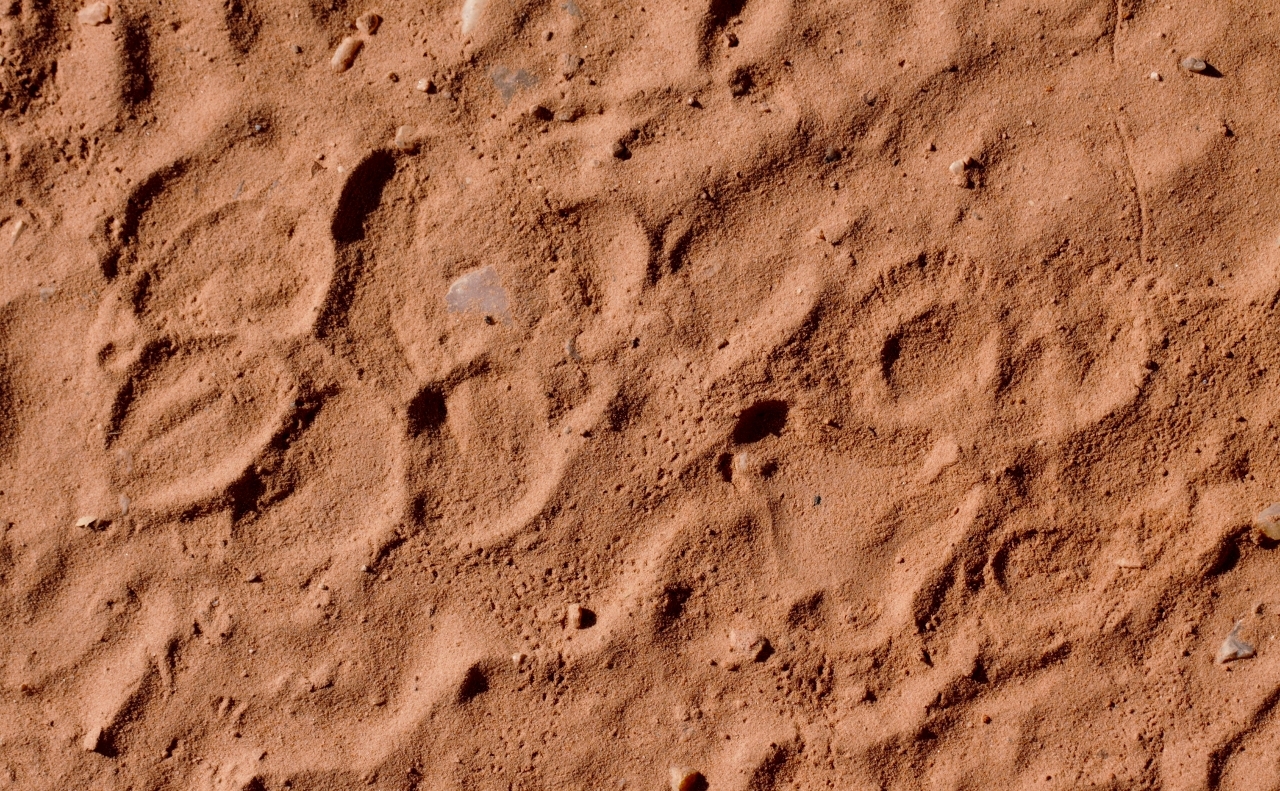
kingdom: Animalia
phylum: Chordata
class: Mammalia
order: Carnivora
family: Hyaenidae
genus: Crocuta
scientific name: Crocuta crocuta
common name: Spotted hyaena
